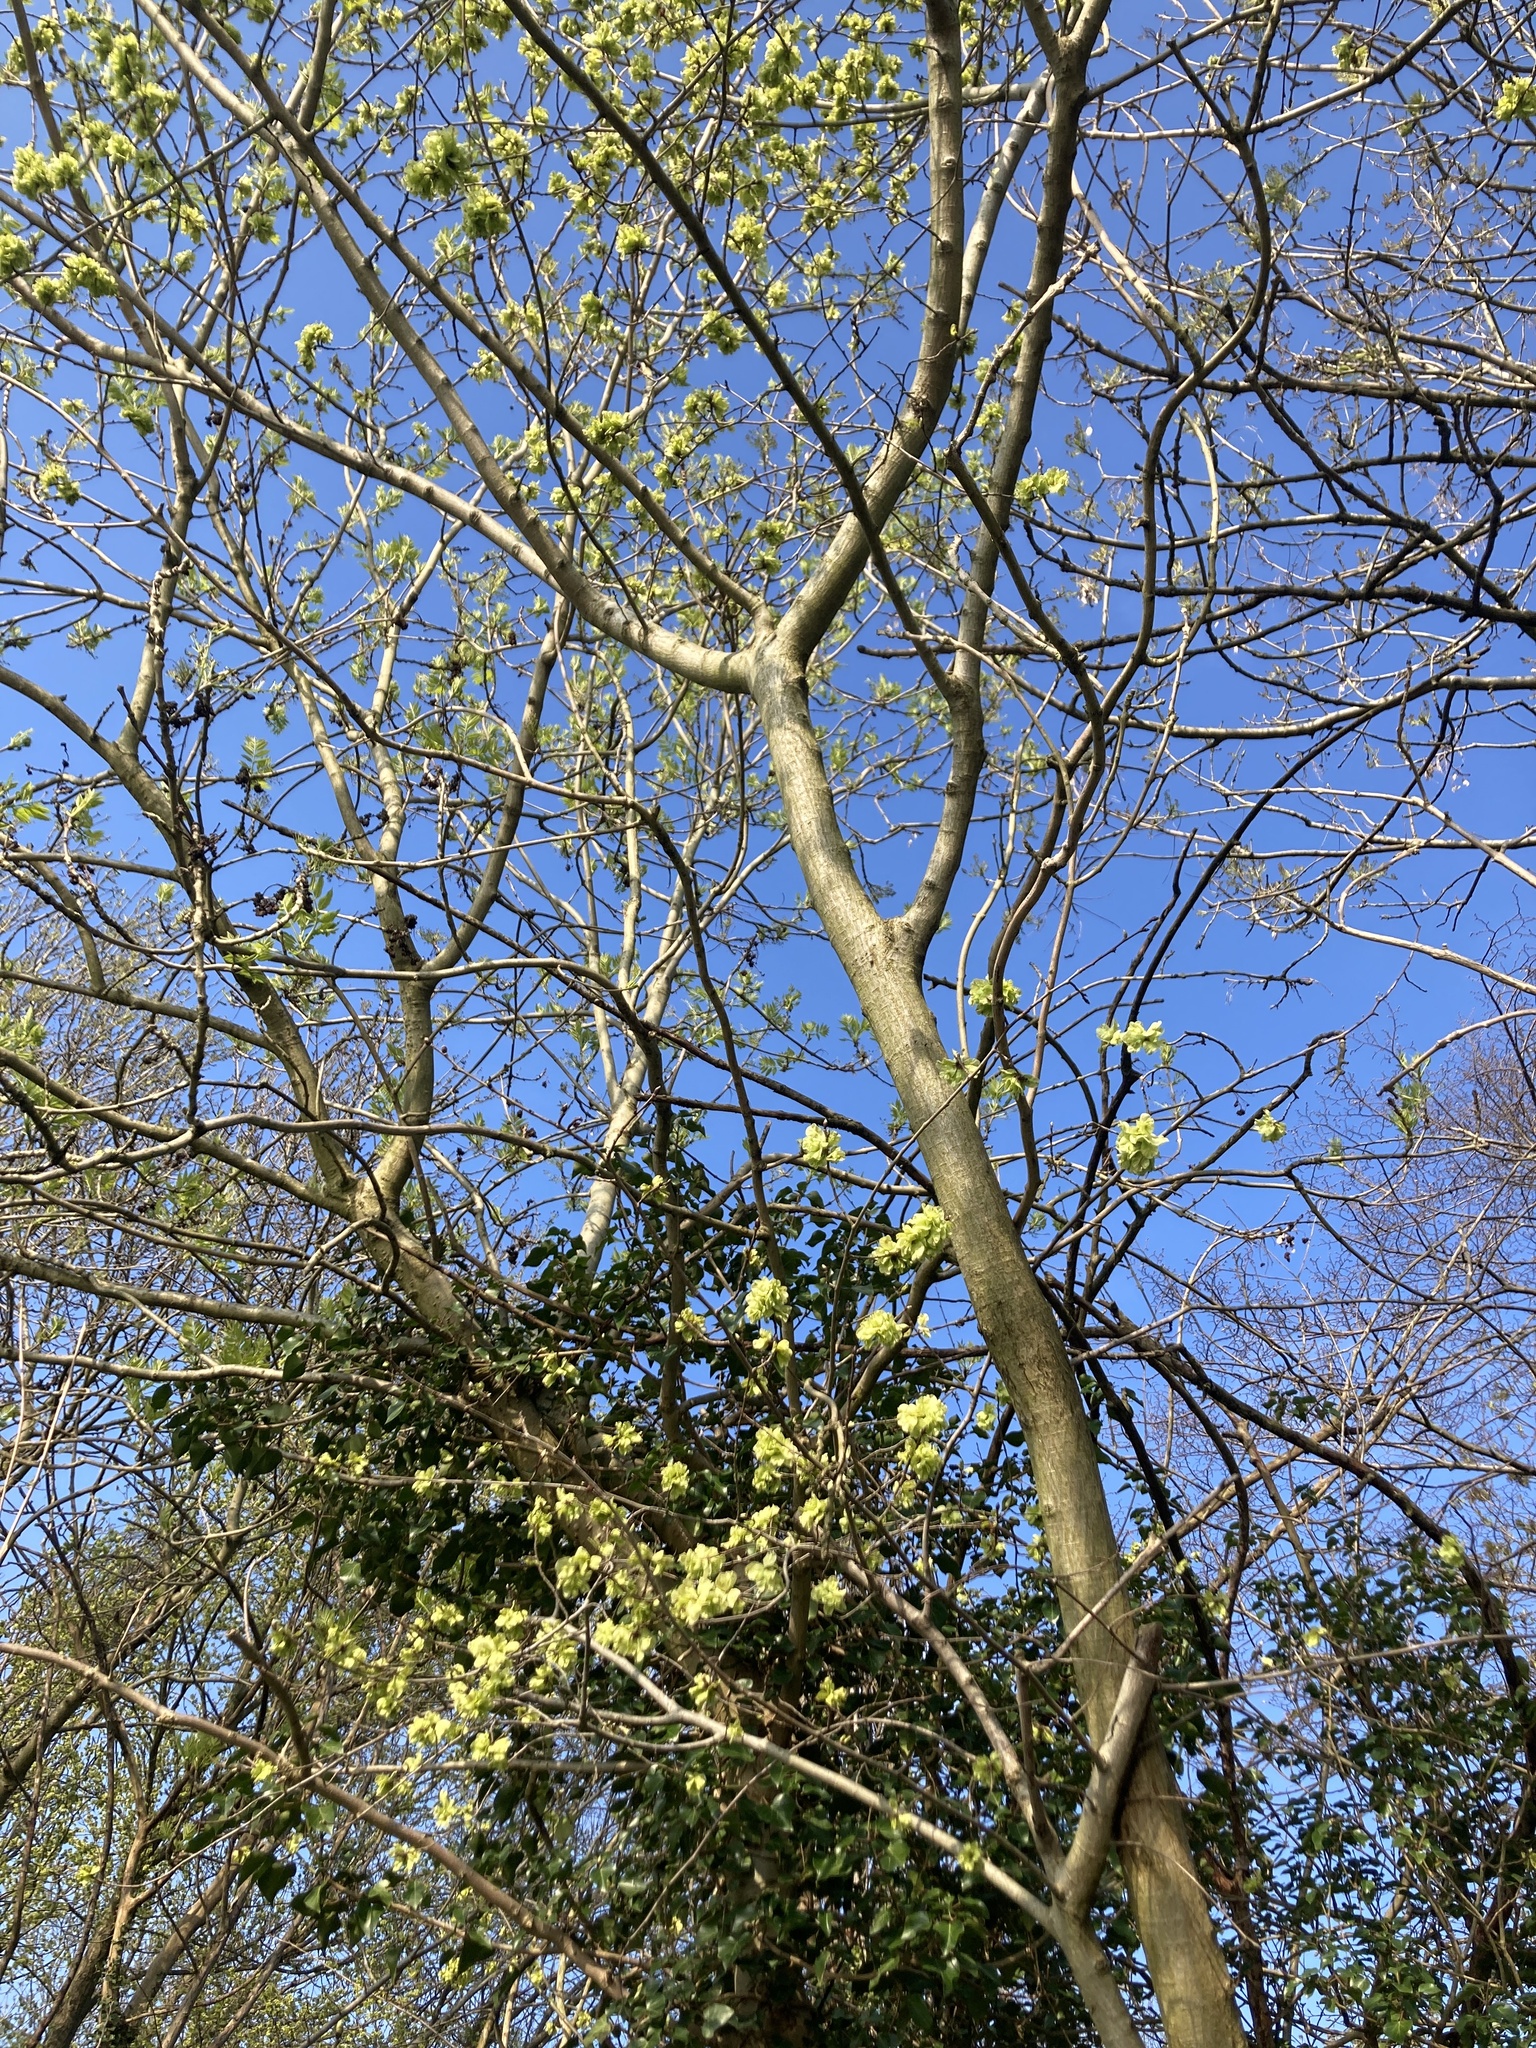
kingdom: Plantae
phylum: Tracheophyta
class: Magnoliopsida
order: Rosales
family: Ulmaceae
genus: Ulmus
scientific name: Ulmus glabra
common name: Wych elm
